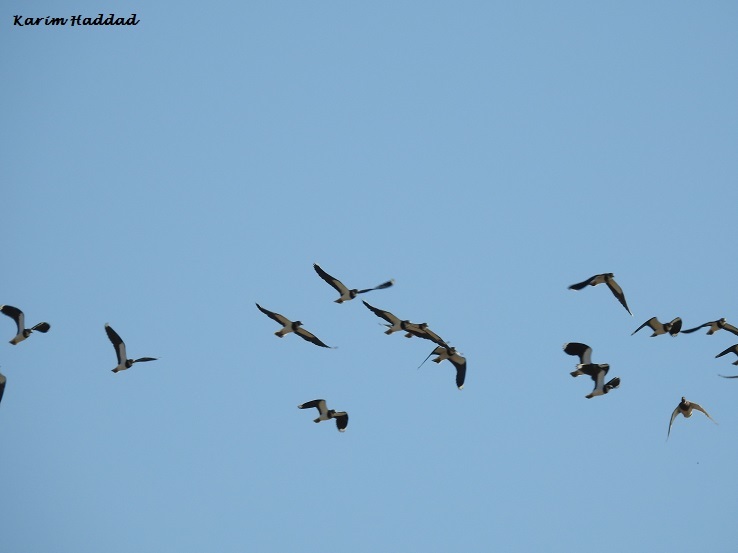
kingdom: Animalia
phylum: Chordata
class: Aves
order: Charadriiformes
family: Charadriidae
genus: Vanellus
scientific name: Vanellus vanellus
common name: Northern lapwing
